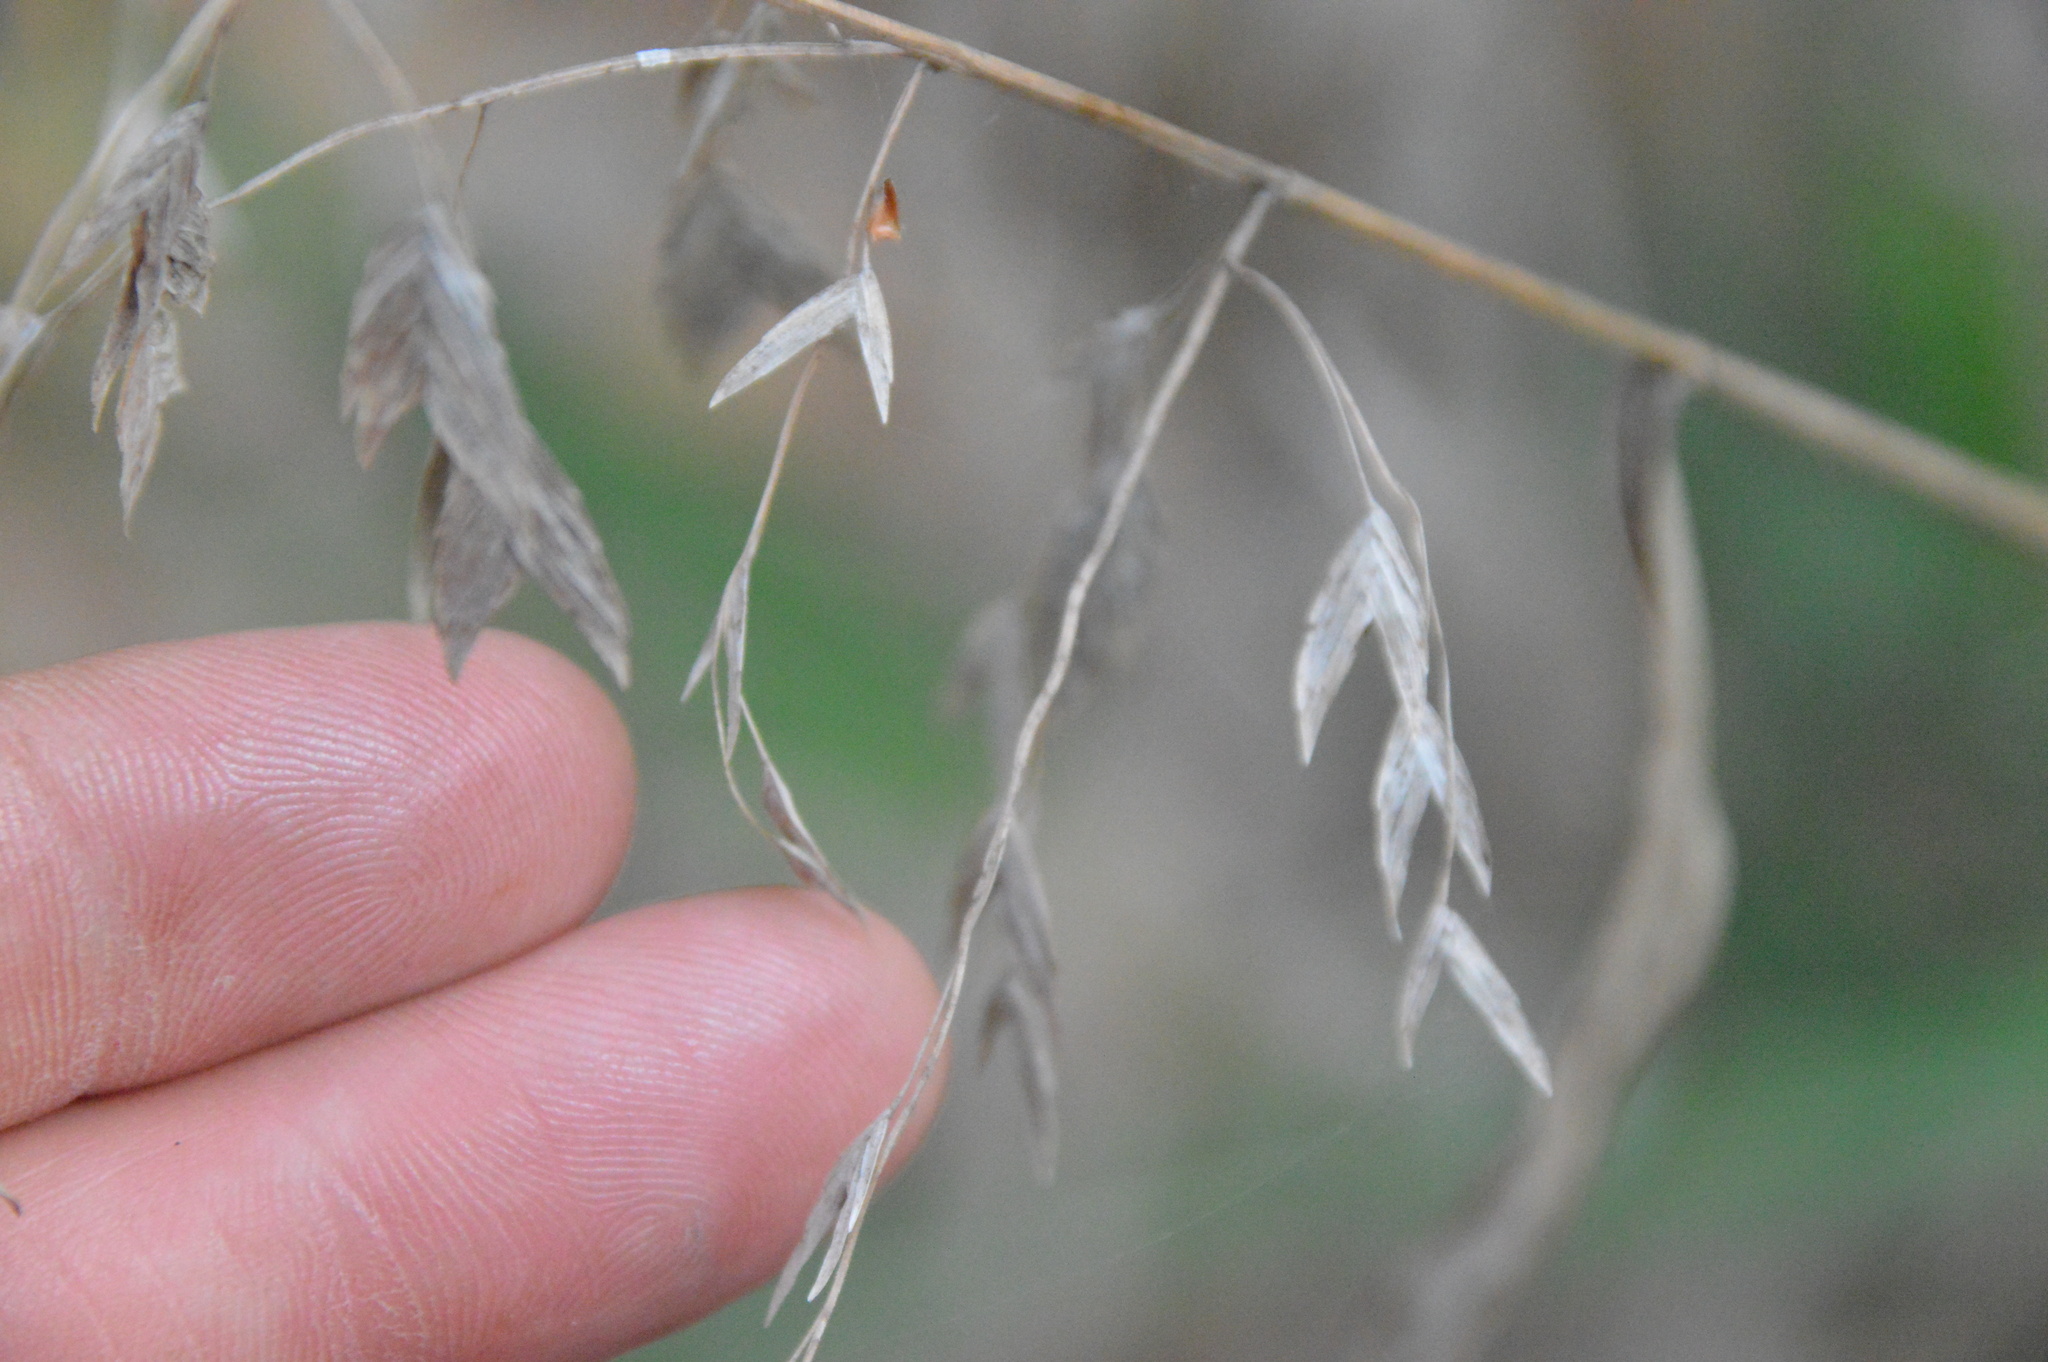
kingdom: Plantae
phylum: Tracheophyta
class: Liliopsida
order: Poales
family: Poaceae
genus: Chasmanthium
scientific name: Chasmanthium latifolium
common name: Broad-leaved chasmanthium
